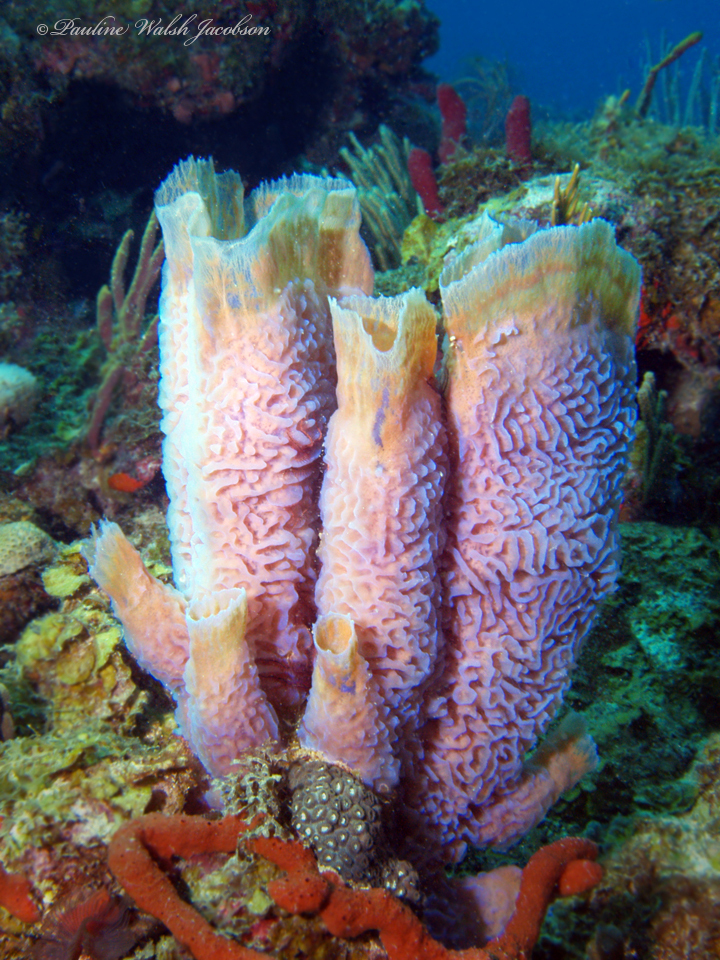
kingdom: Animalia
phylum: Porifera
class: Demospongiae
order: Haplosclerida
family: Callyspongiidae
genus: Callyspongia
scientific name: Callyspongia plicifera
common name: Azure vase sponge
